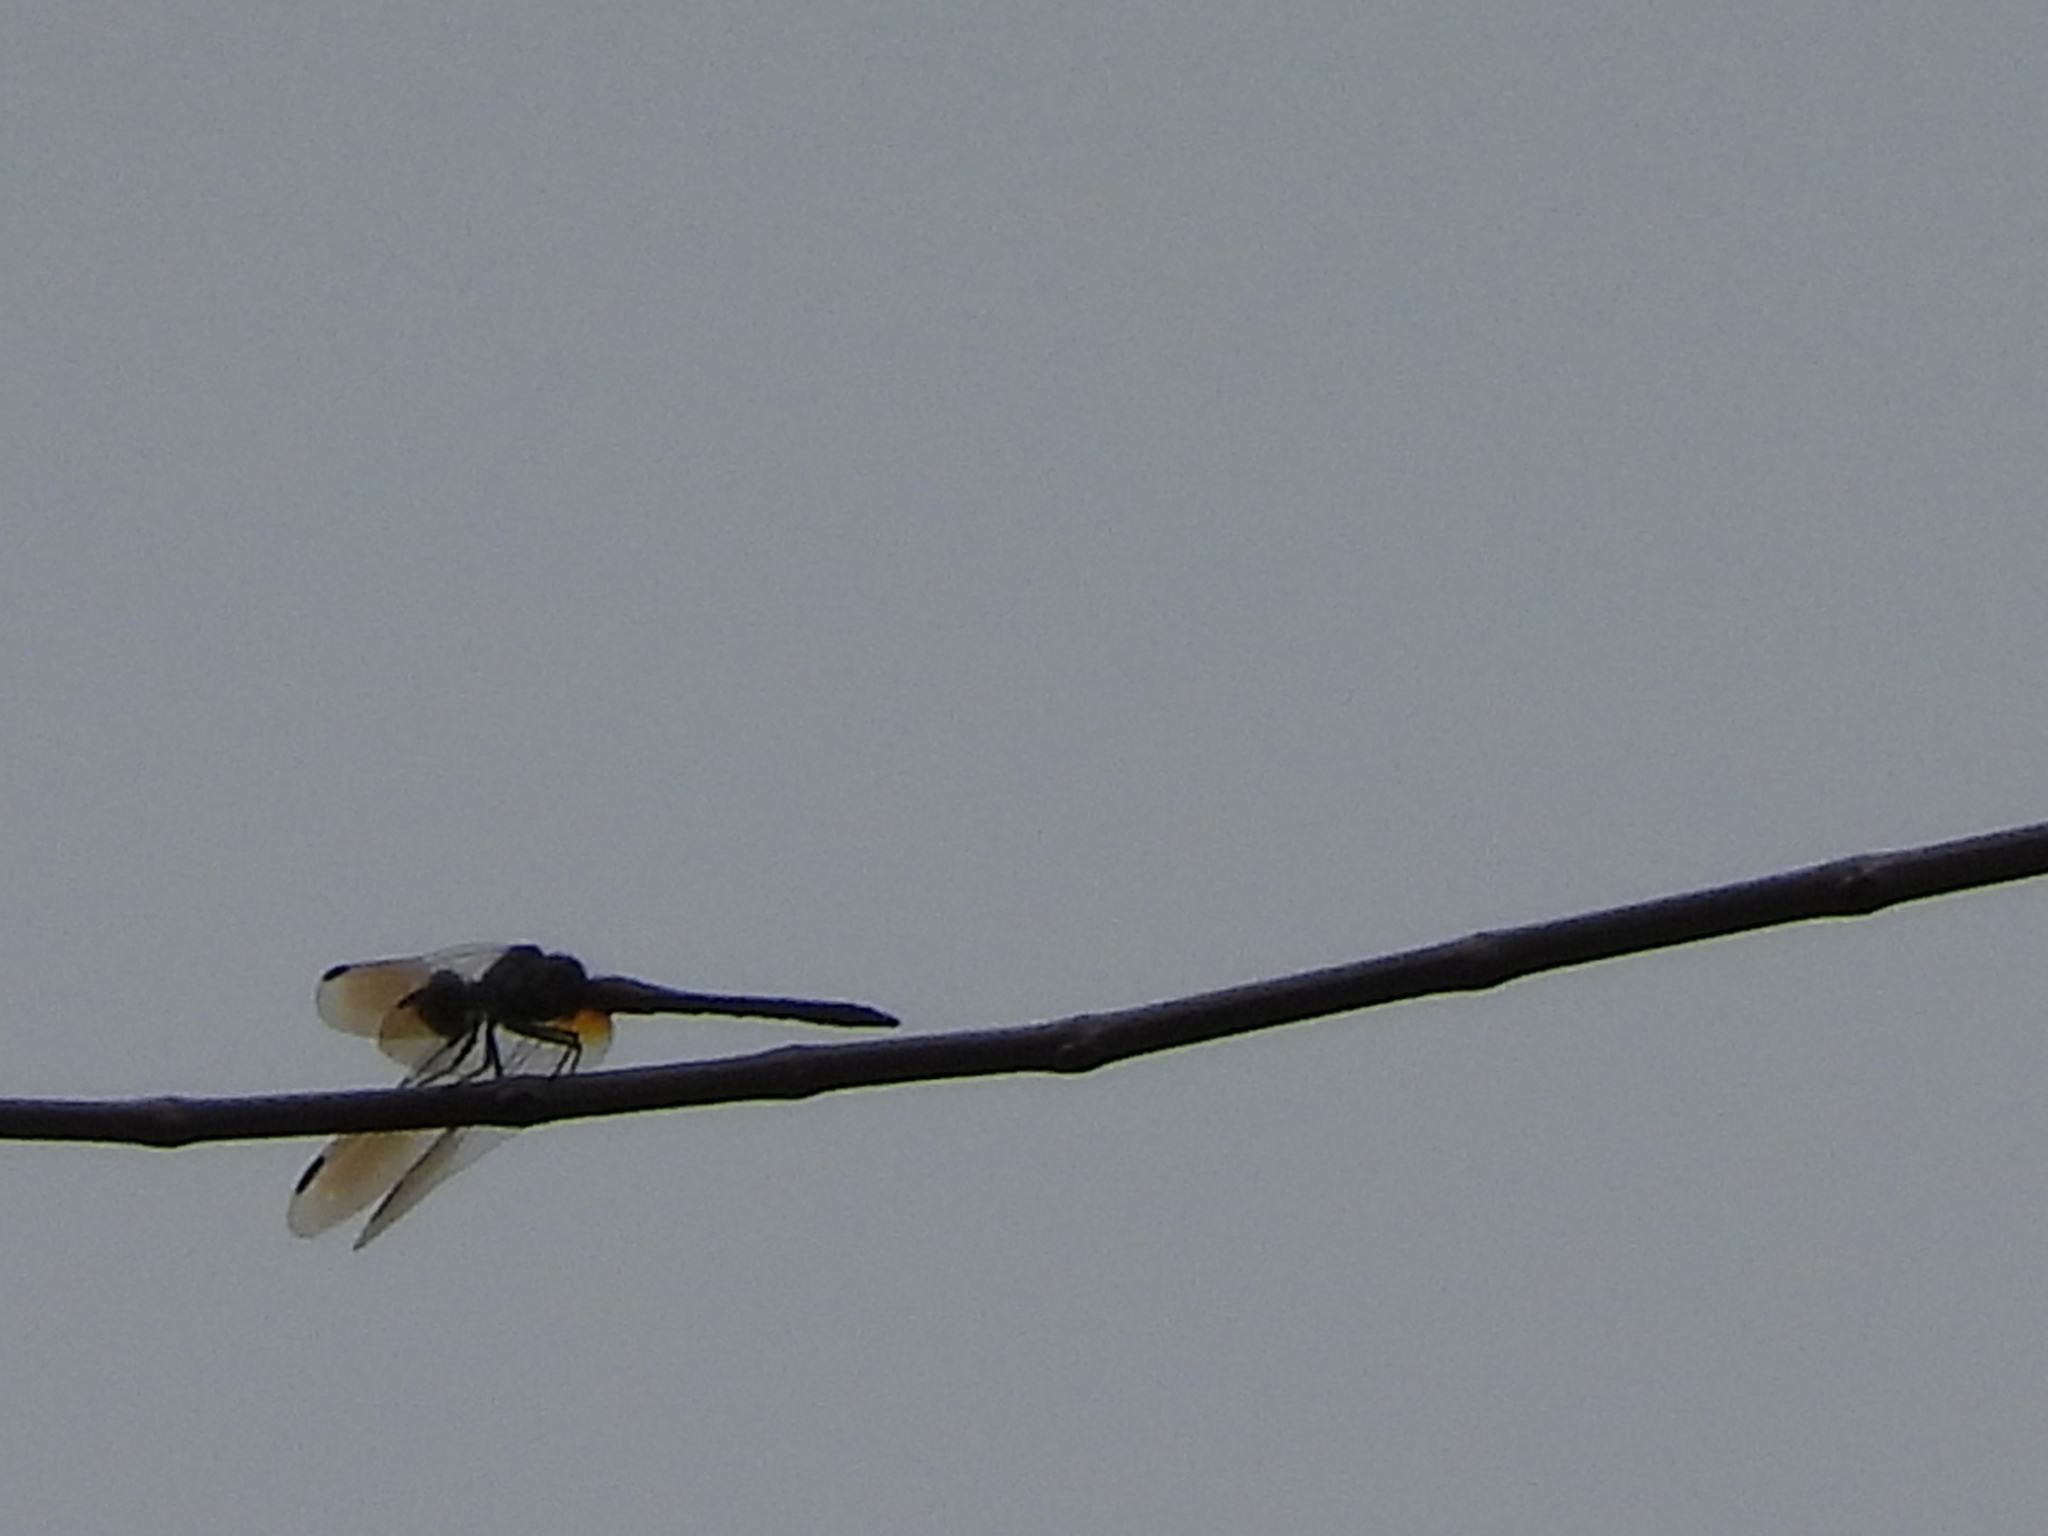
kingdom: Animalia
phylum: Arthropoda
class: Insecta
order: Odonata
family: Libellulidae
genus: Pachydiplax
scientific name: Pachydiplax longipennis
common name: Blue dasher
